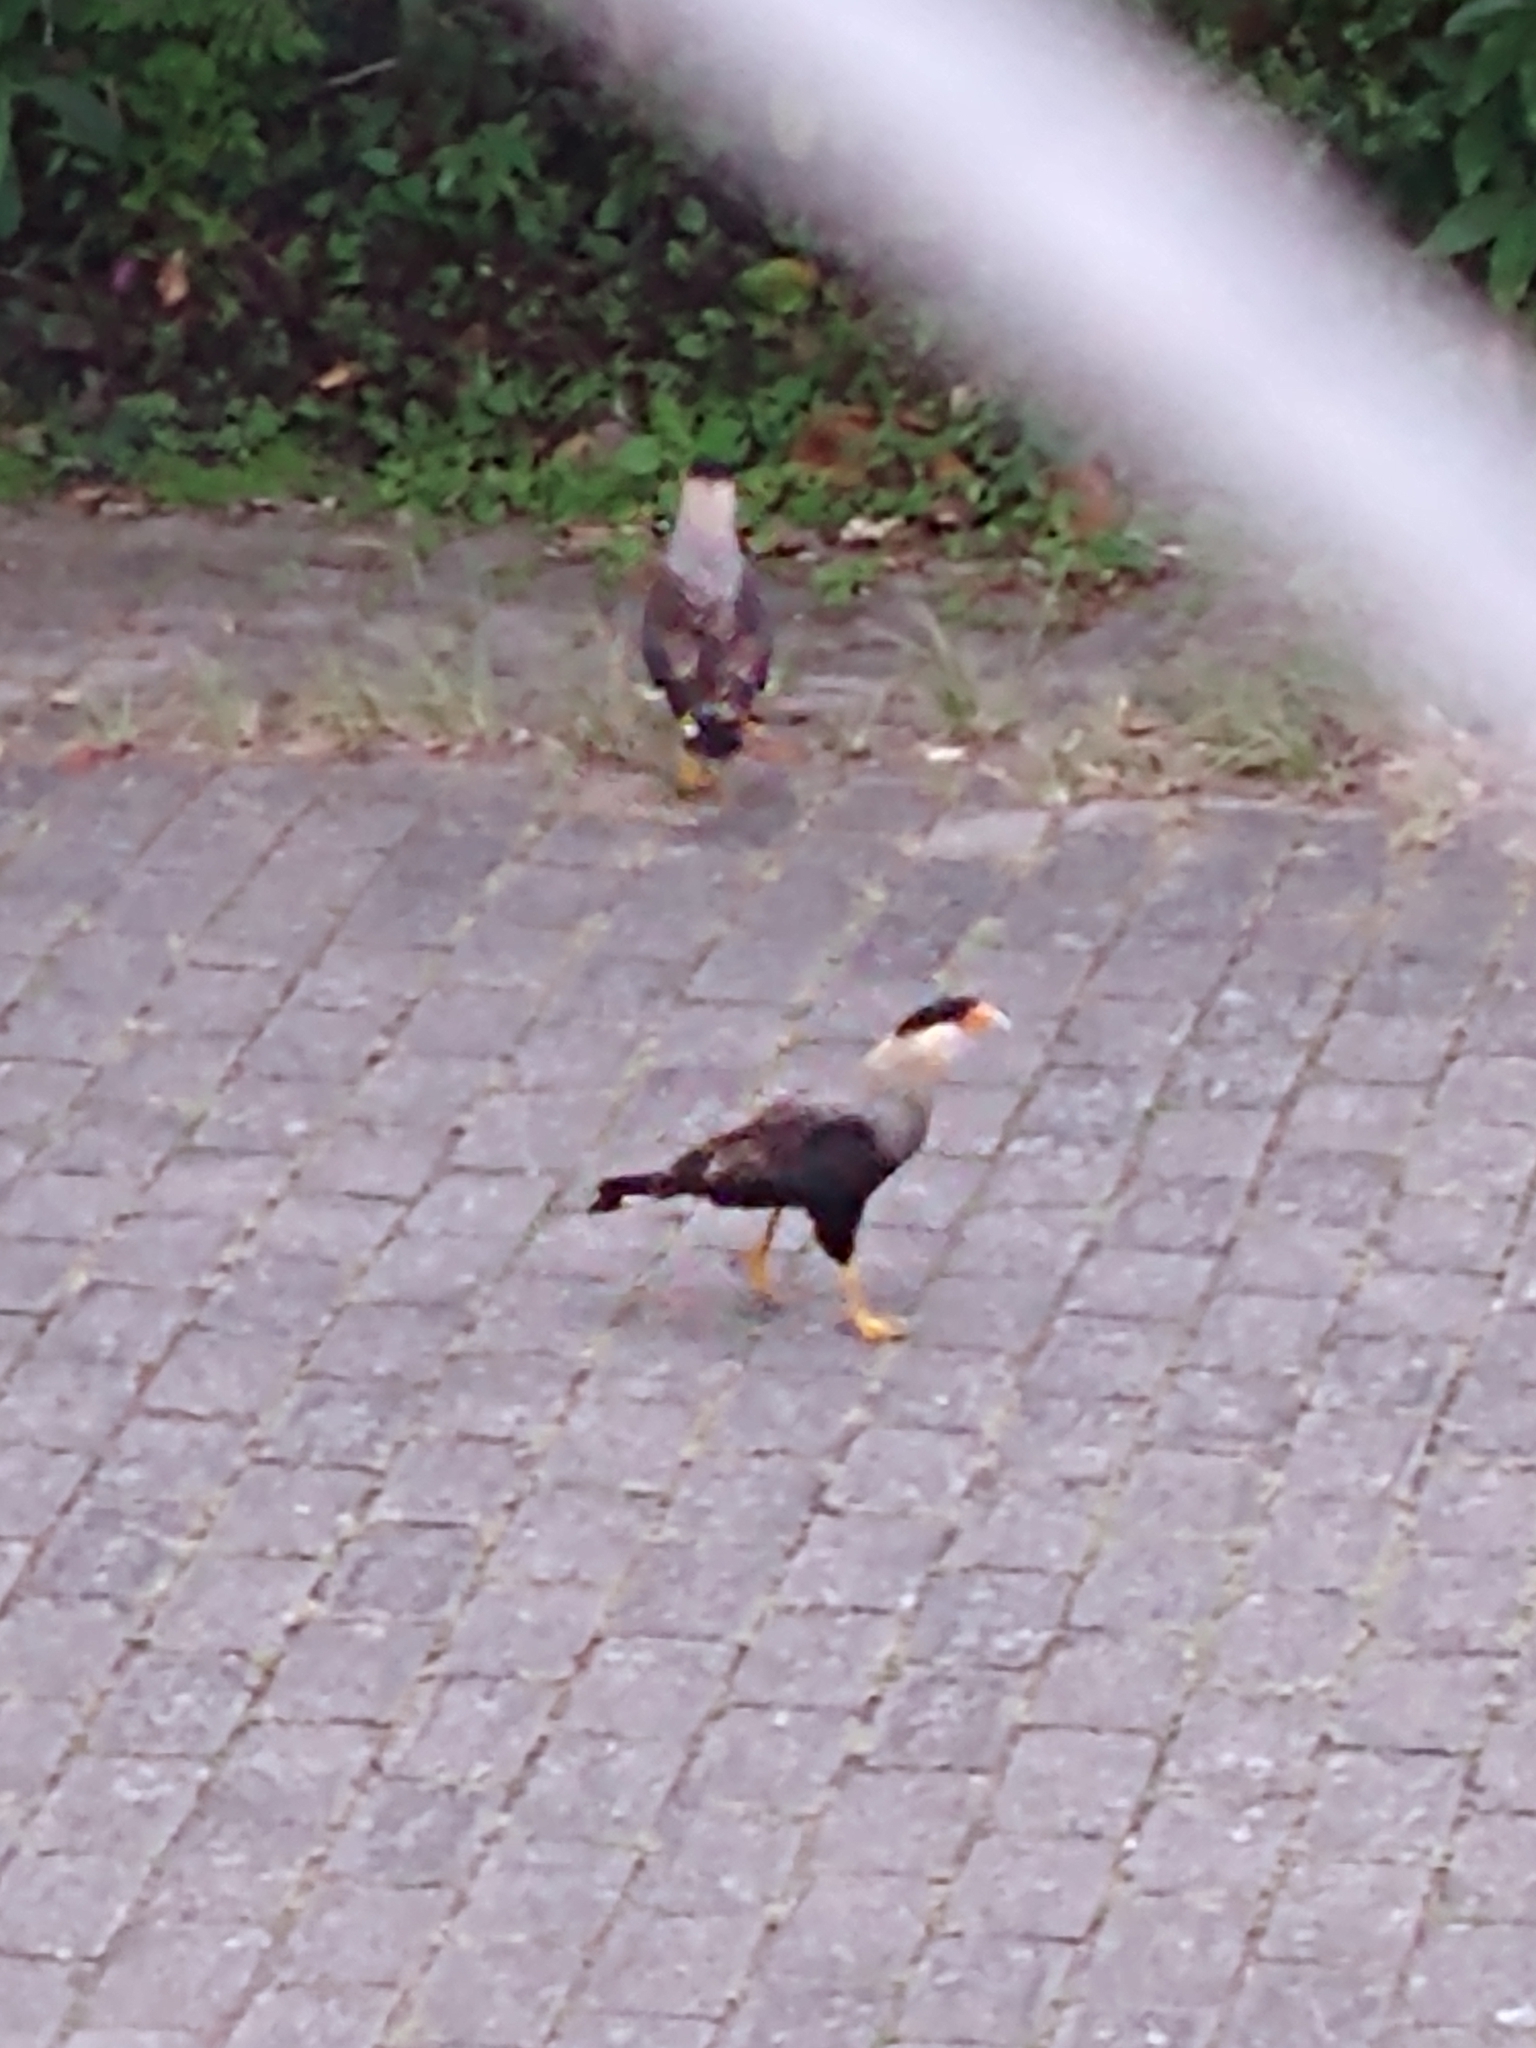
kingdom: Animalia
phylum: Chordata
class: Aves
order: Falconiformes
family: Falconidae
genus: Caracara
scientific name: Caracara plancus
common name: Southern caracara
